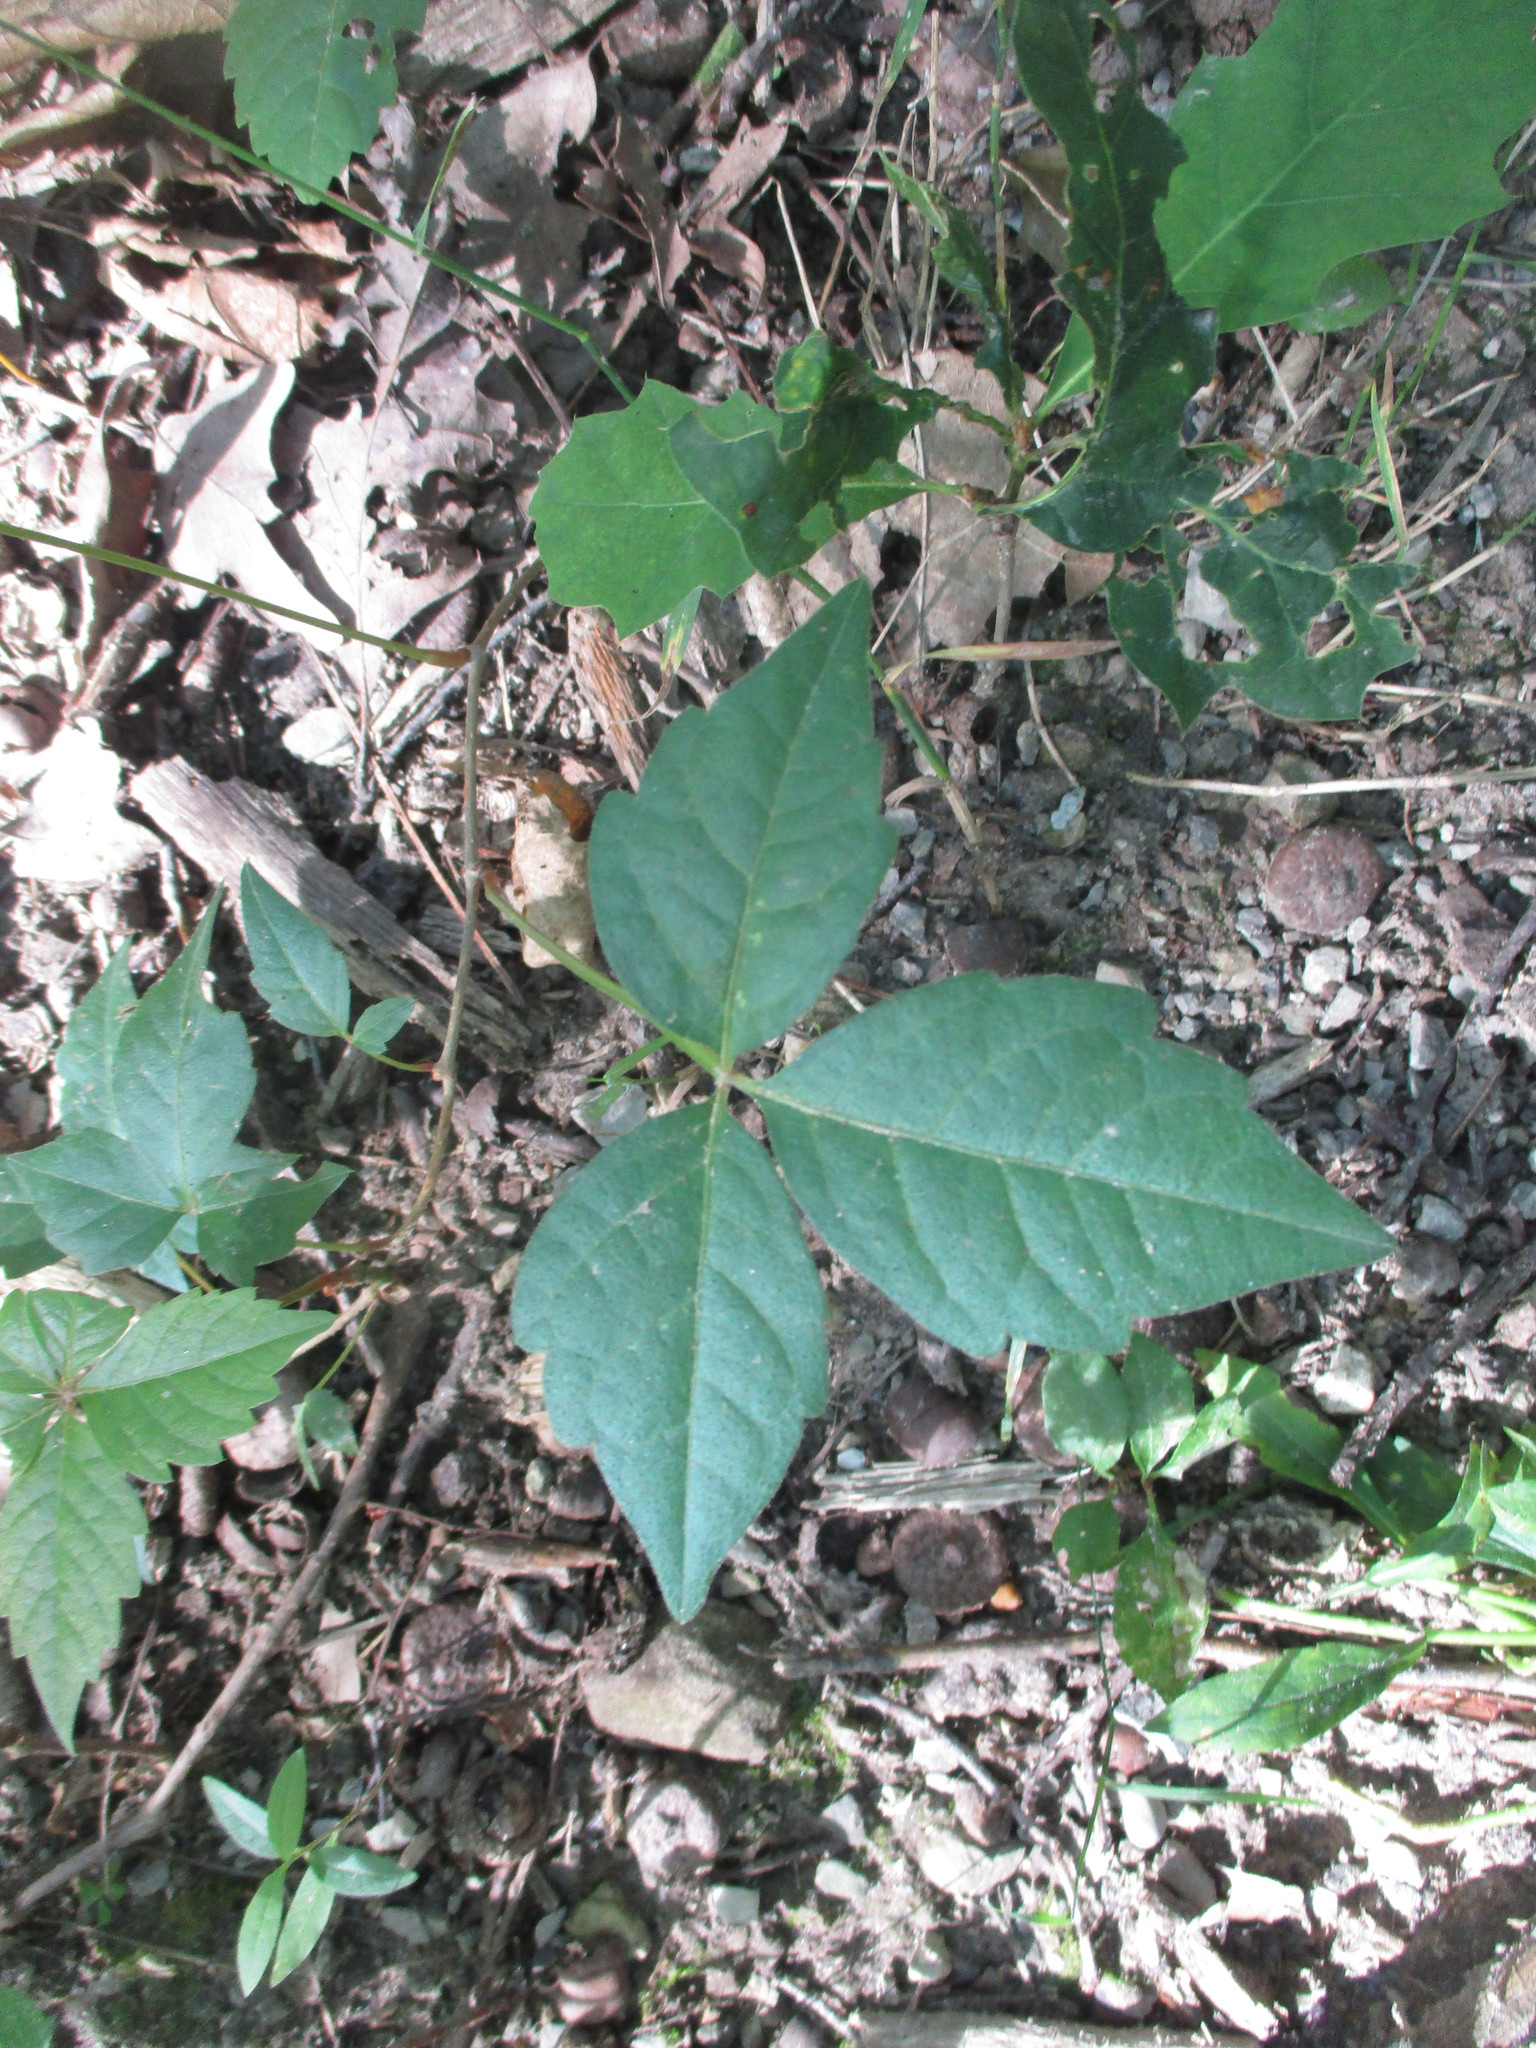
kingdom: Plantae
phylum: Tracheophyta
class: Magnoliopsida
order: Sapindales
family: Anacardiaceae
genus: Toxicodendron
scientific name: Toxicodendron radicans
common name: Poison ivy
